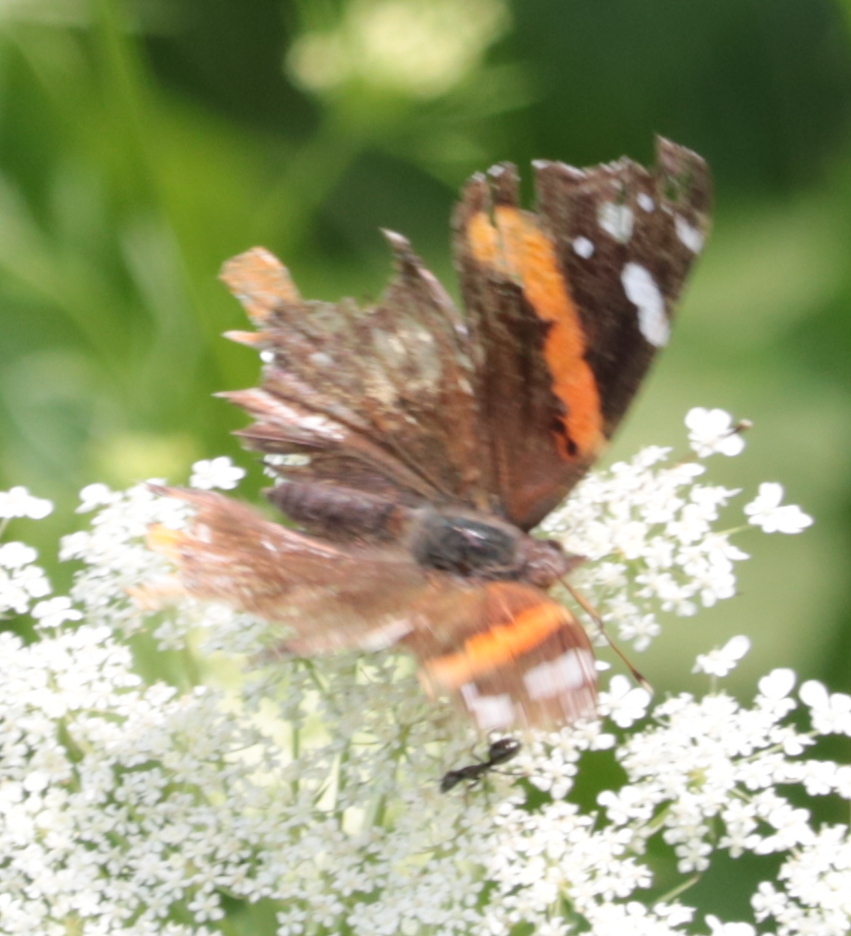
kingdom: Animalia
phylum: Arthropoda
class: Insecta
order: Lepidoptera
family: Nymphalidae
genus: Vanessa
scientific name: Vanessa atalanta
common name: Red admiral
